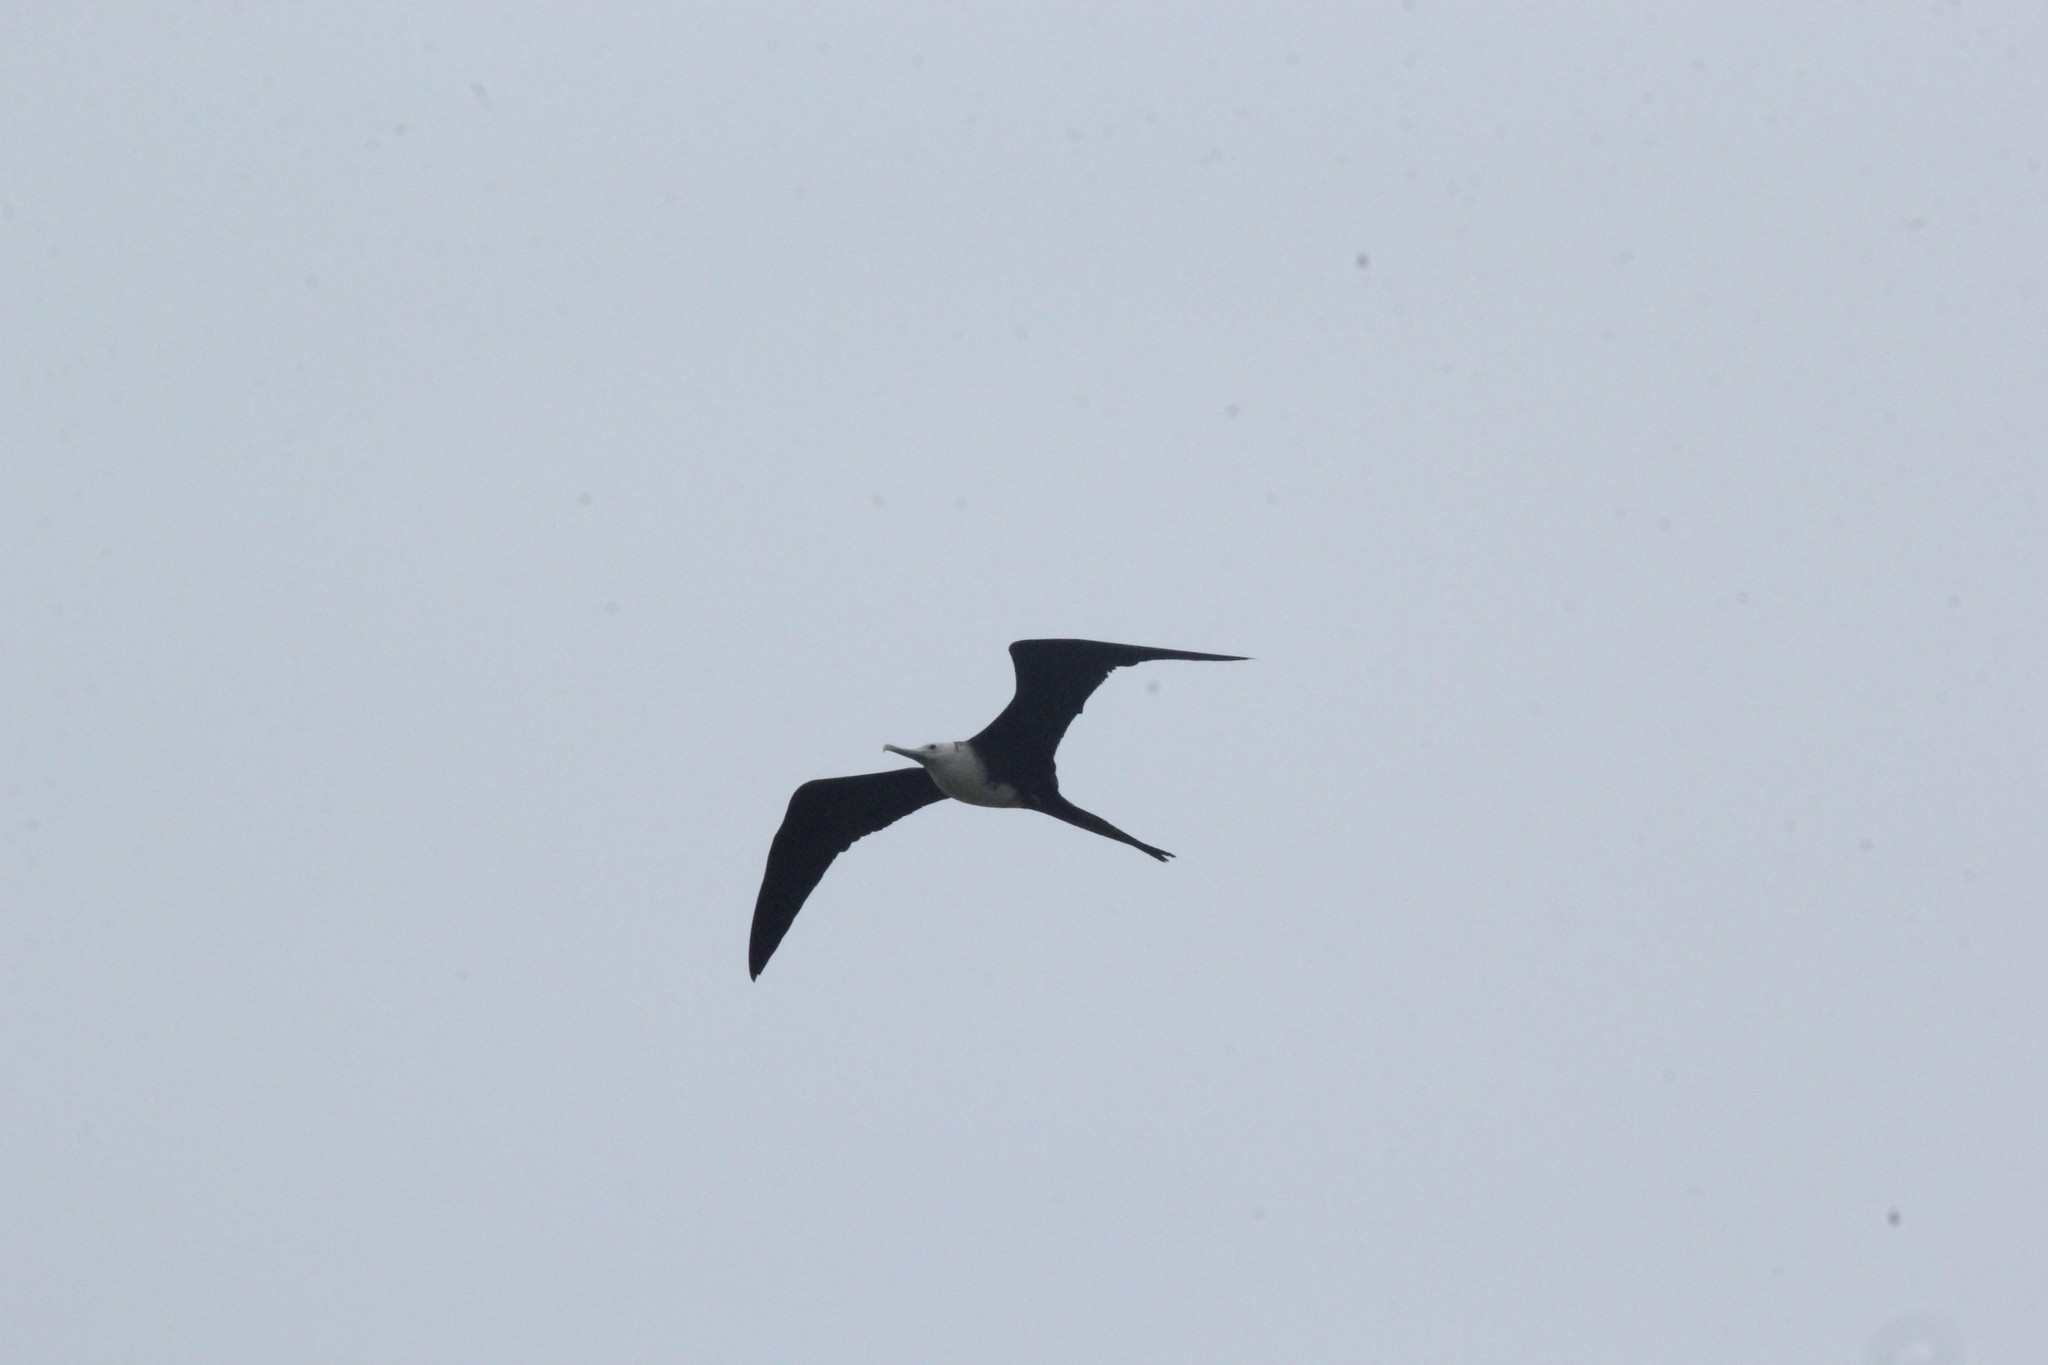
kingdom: Animalia
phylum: Chordata
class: Aves
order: Suliformes
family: Fregatidae
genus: Fregata
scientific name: Fregata magnificens
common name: Magnificent frigatebird
